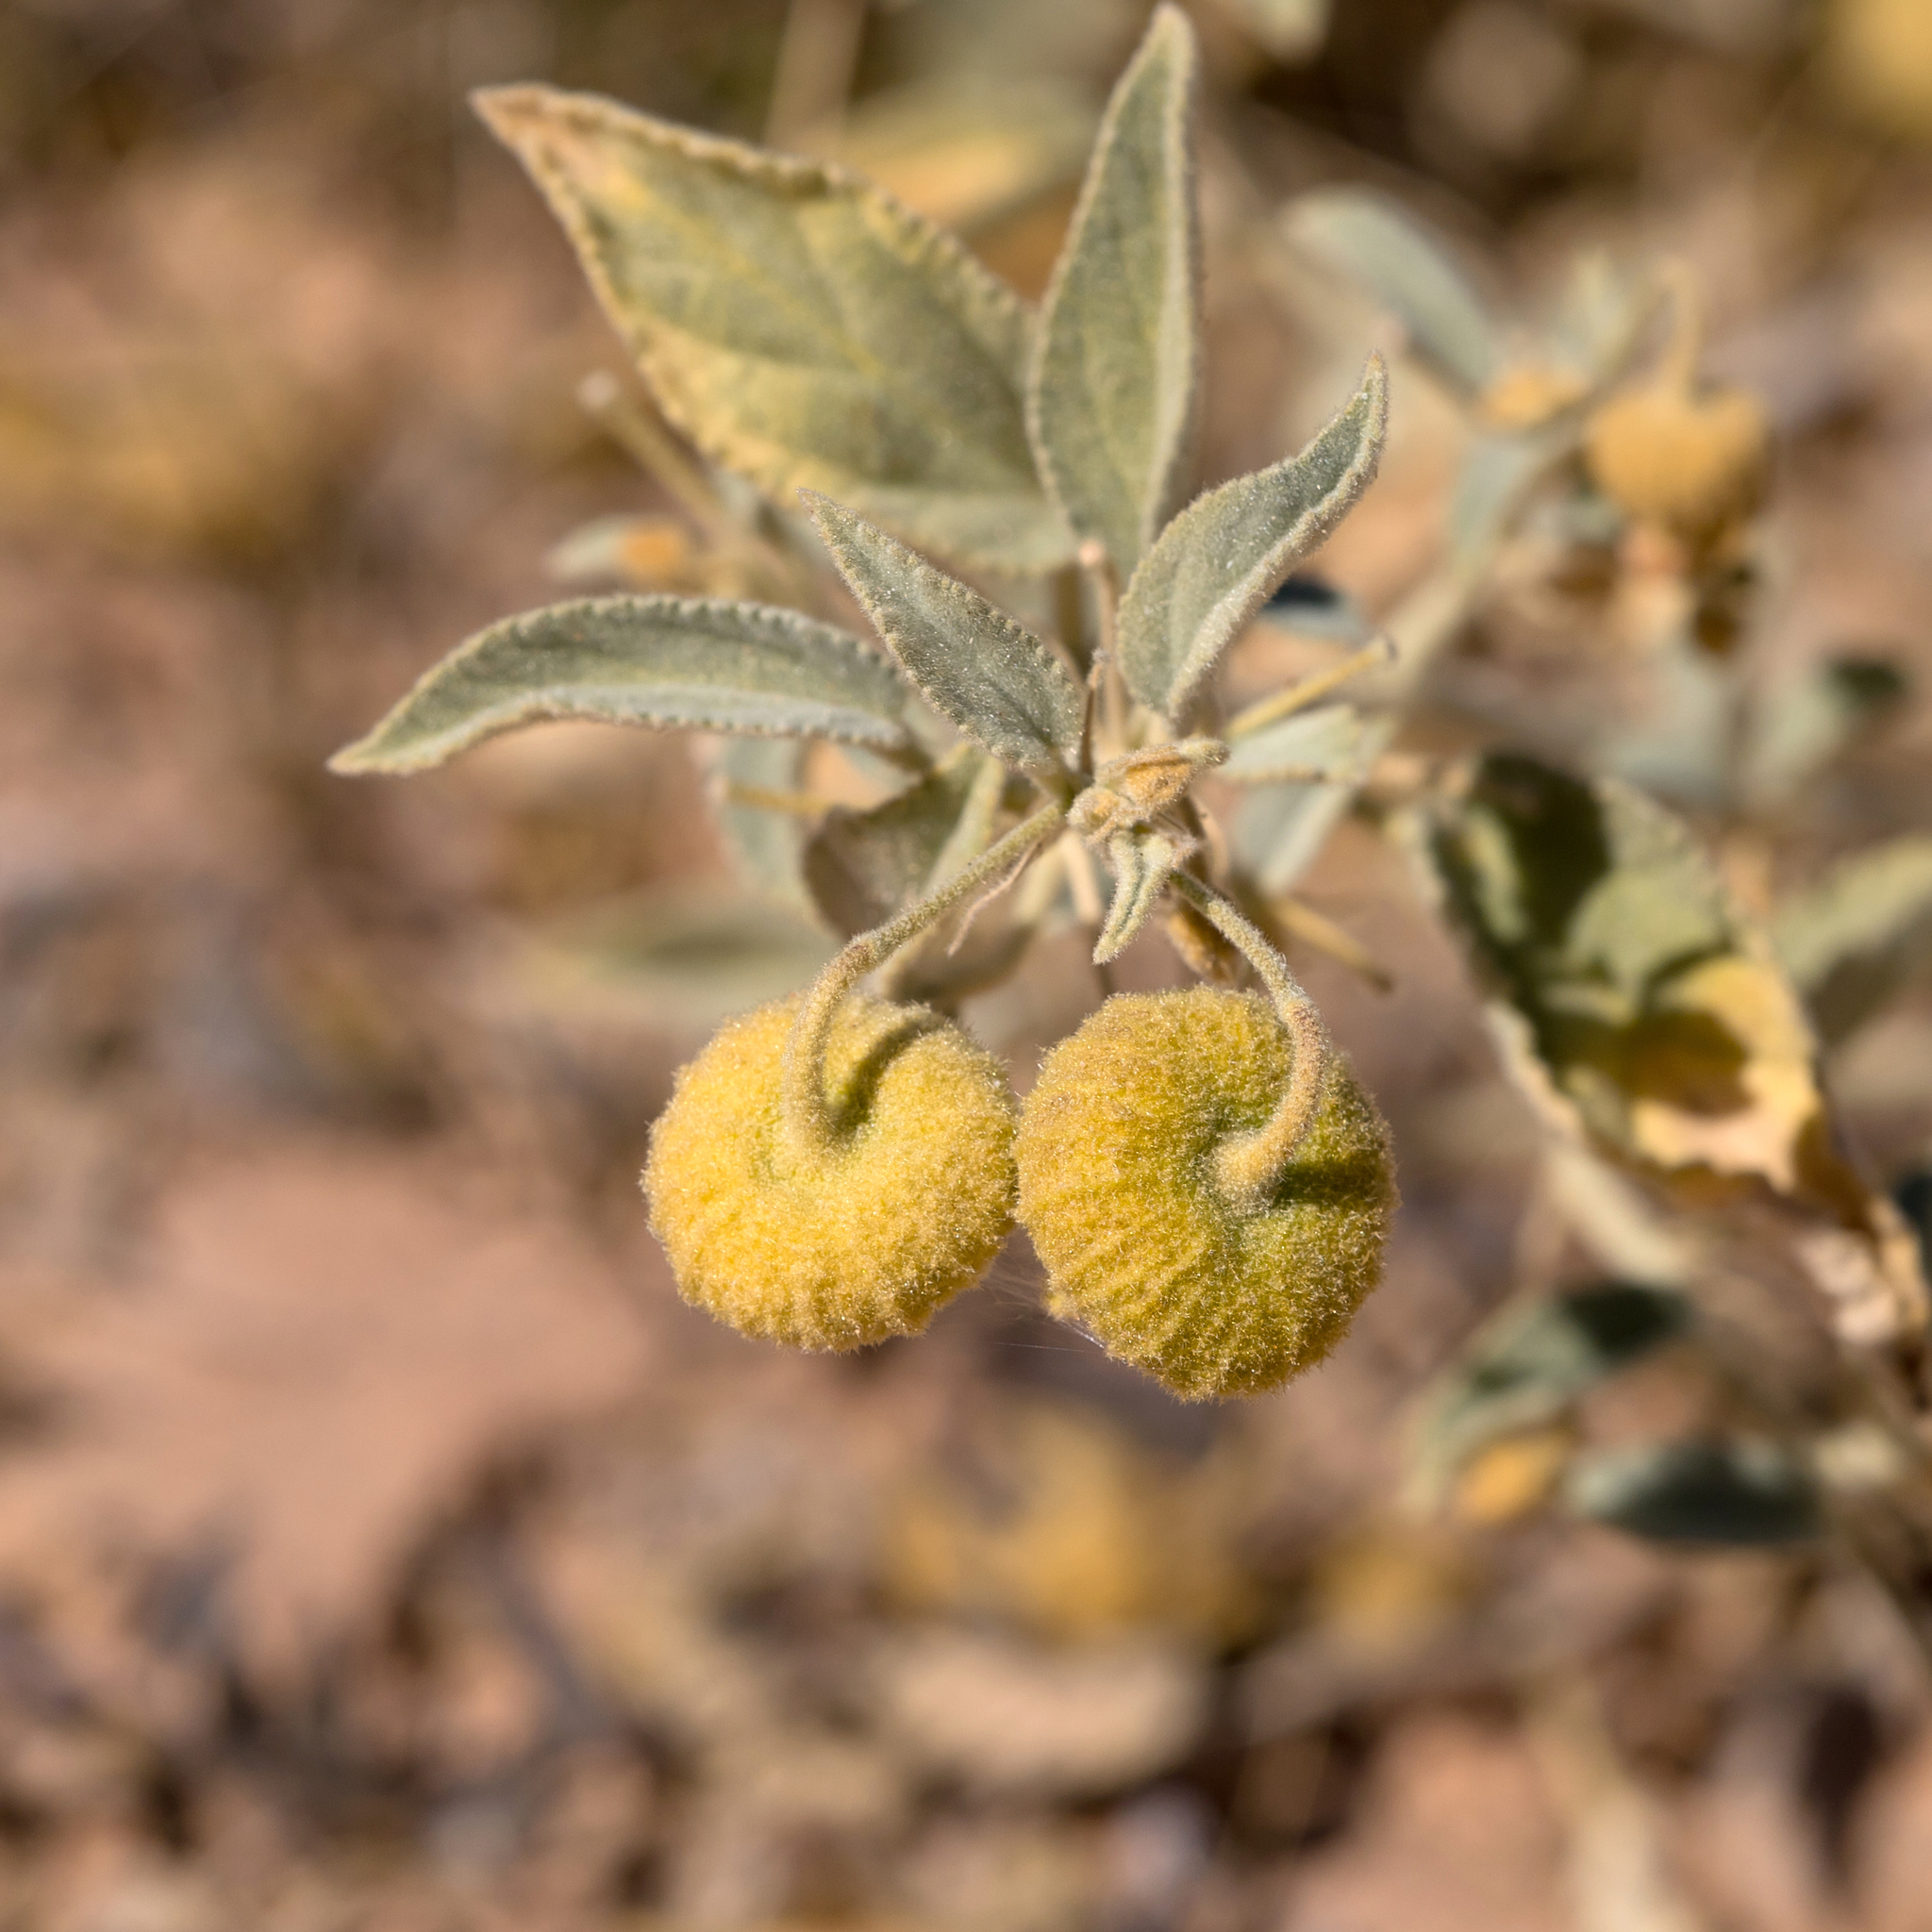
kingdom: Plantae
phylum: Tracheophyta
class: Magnoliopsida
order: Malvales
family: Malvaceae
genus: Sida
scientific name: Sida platycalyx
